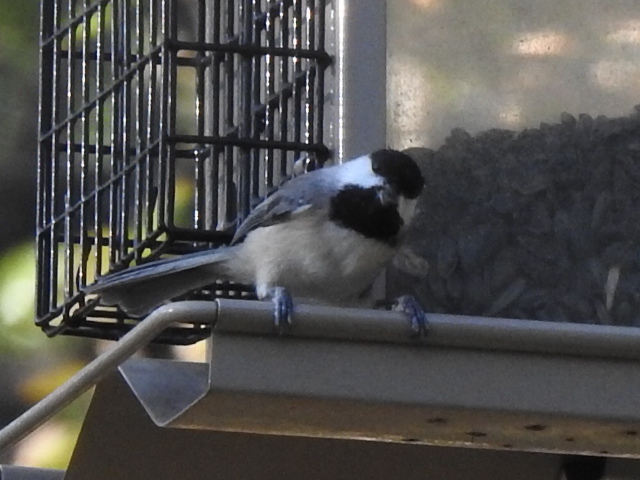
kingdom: Animalia
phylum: Chordata
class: Aves
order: Passeriformes
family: Paridae
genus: Poecile
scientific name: Poecile carolinensis
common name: Carolina chickadee
